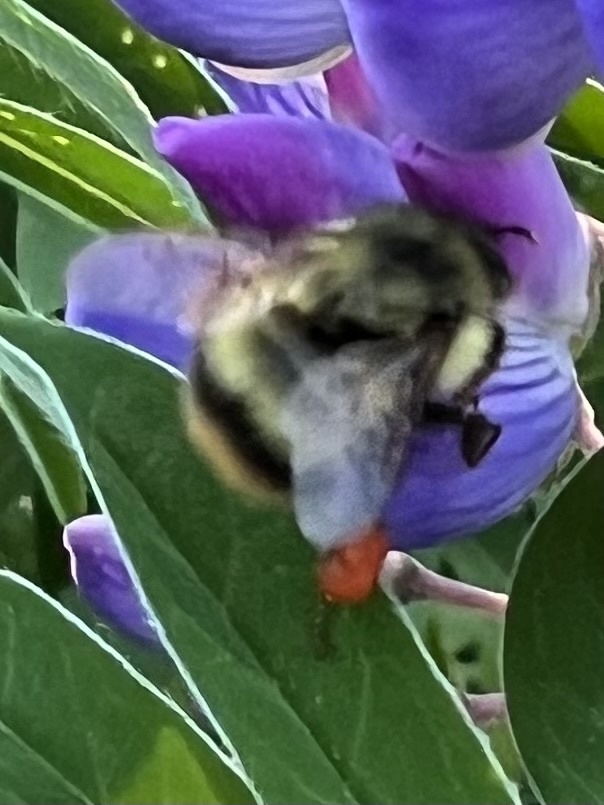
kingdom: Animalia
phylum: Arthropoda
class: Insecta
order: Hymenoptera
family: Apidae
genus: Bombus
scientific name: Bombus mixtus
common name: Fuzzy-horned bumble bee
